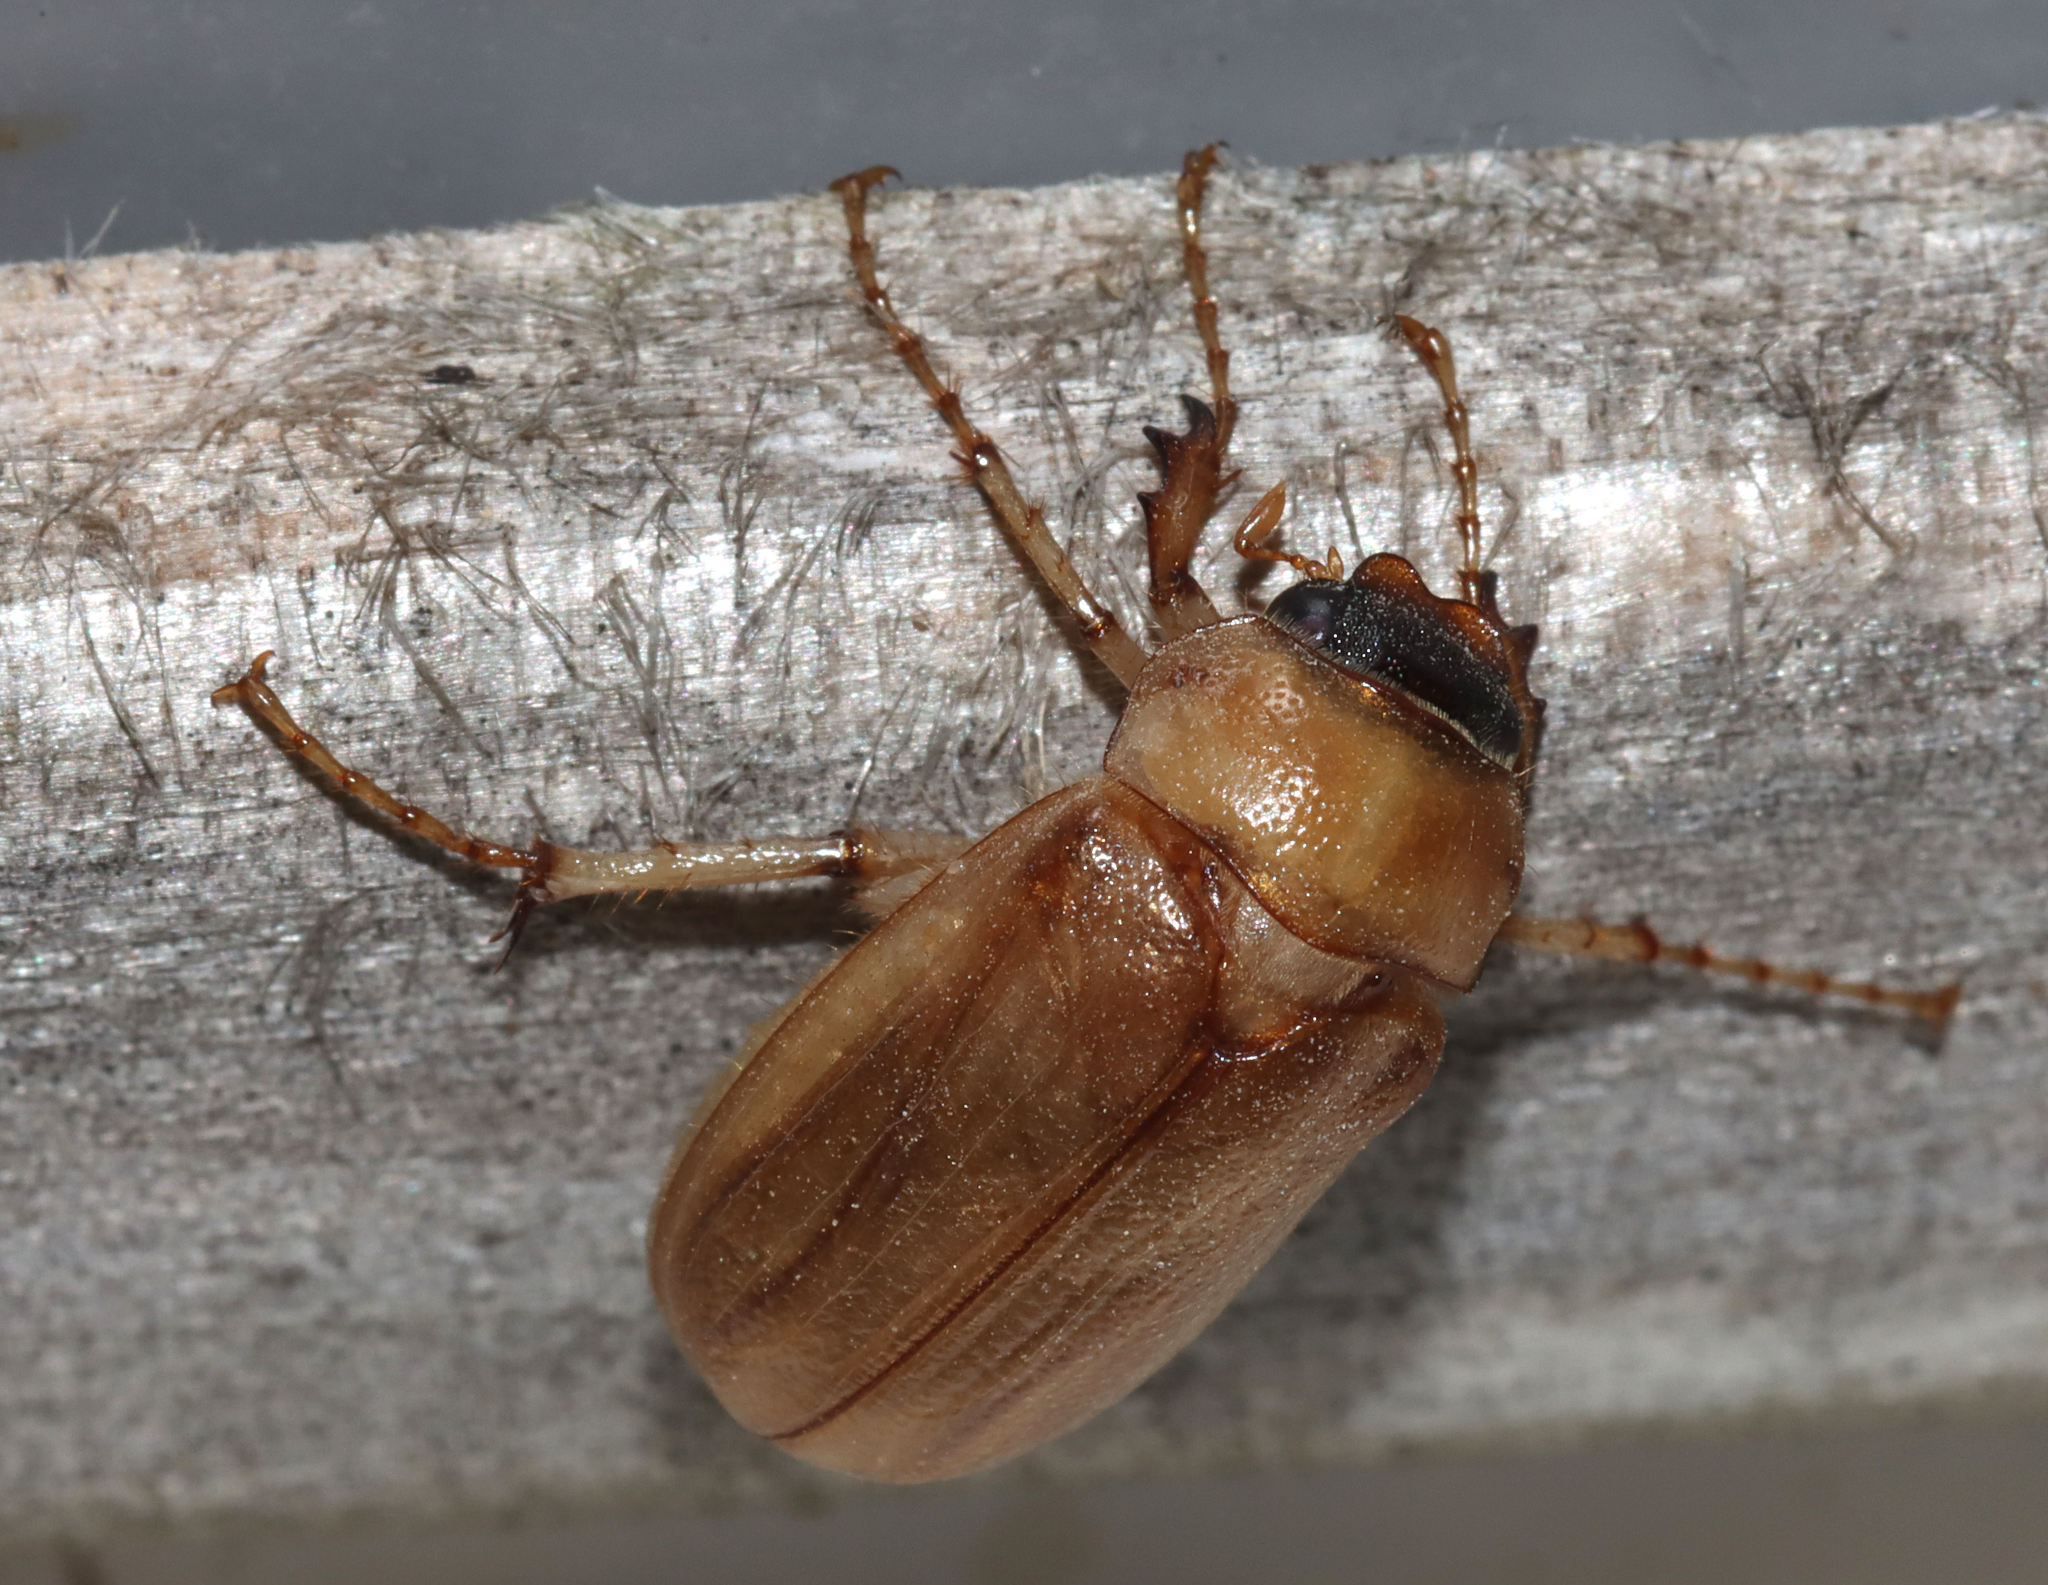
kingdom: Animalia
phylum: Arthropoda
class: Insecta
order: Coleoptera
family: Scarabaeidae
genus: Phyllophaga
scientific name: Phyllophaga longitarsa
